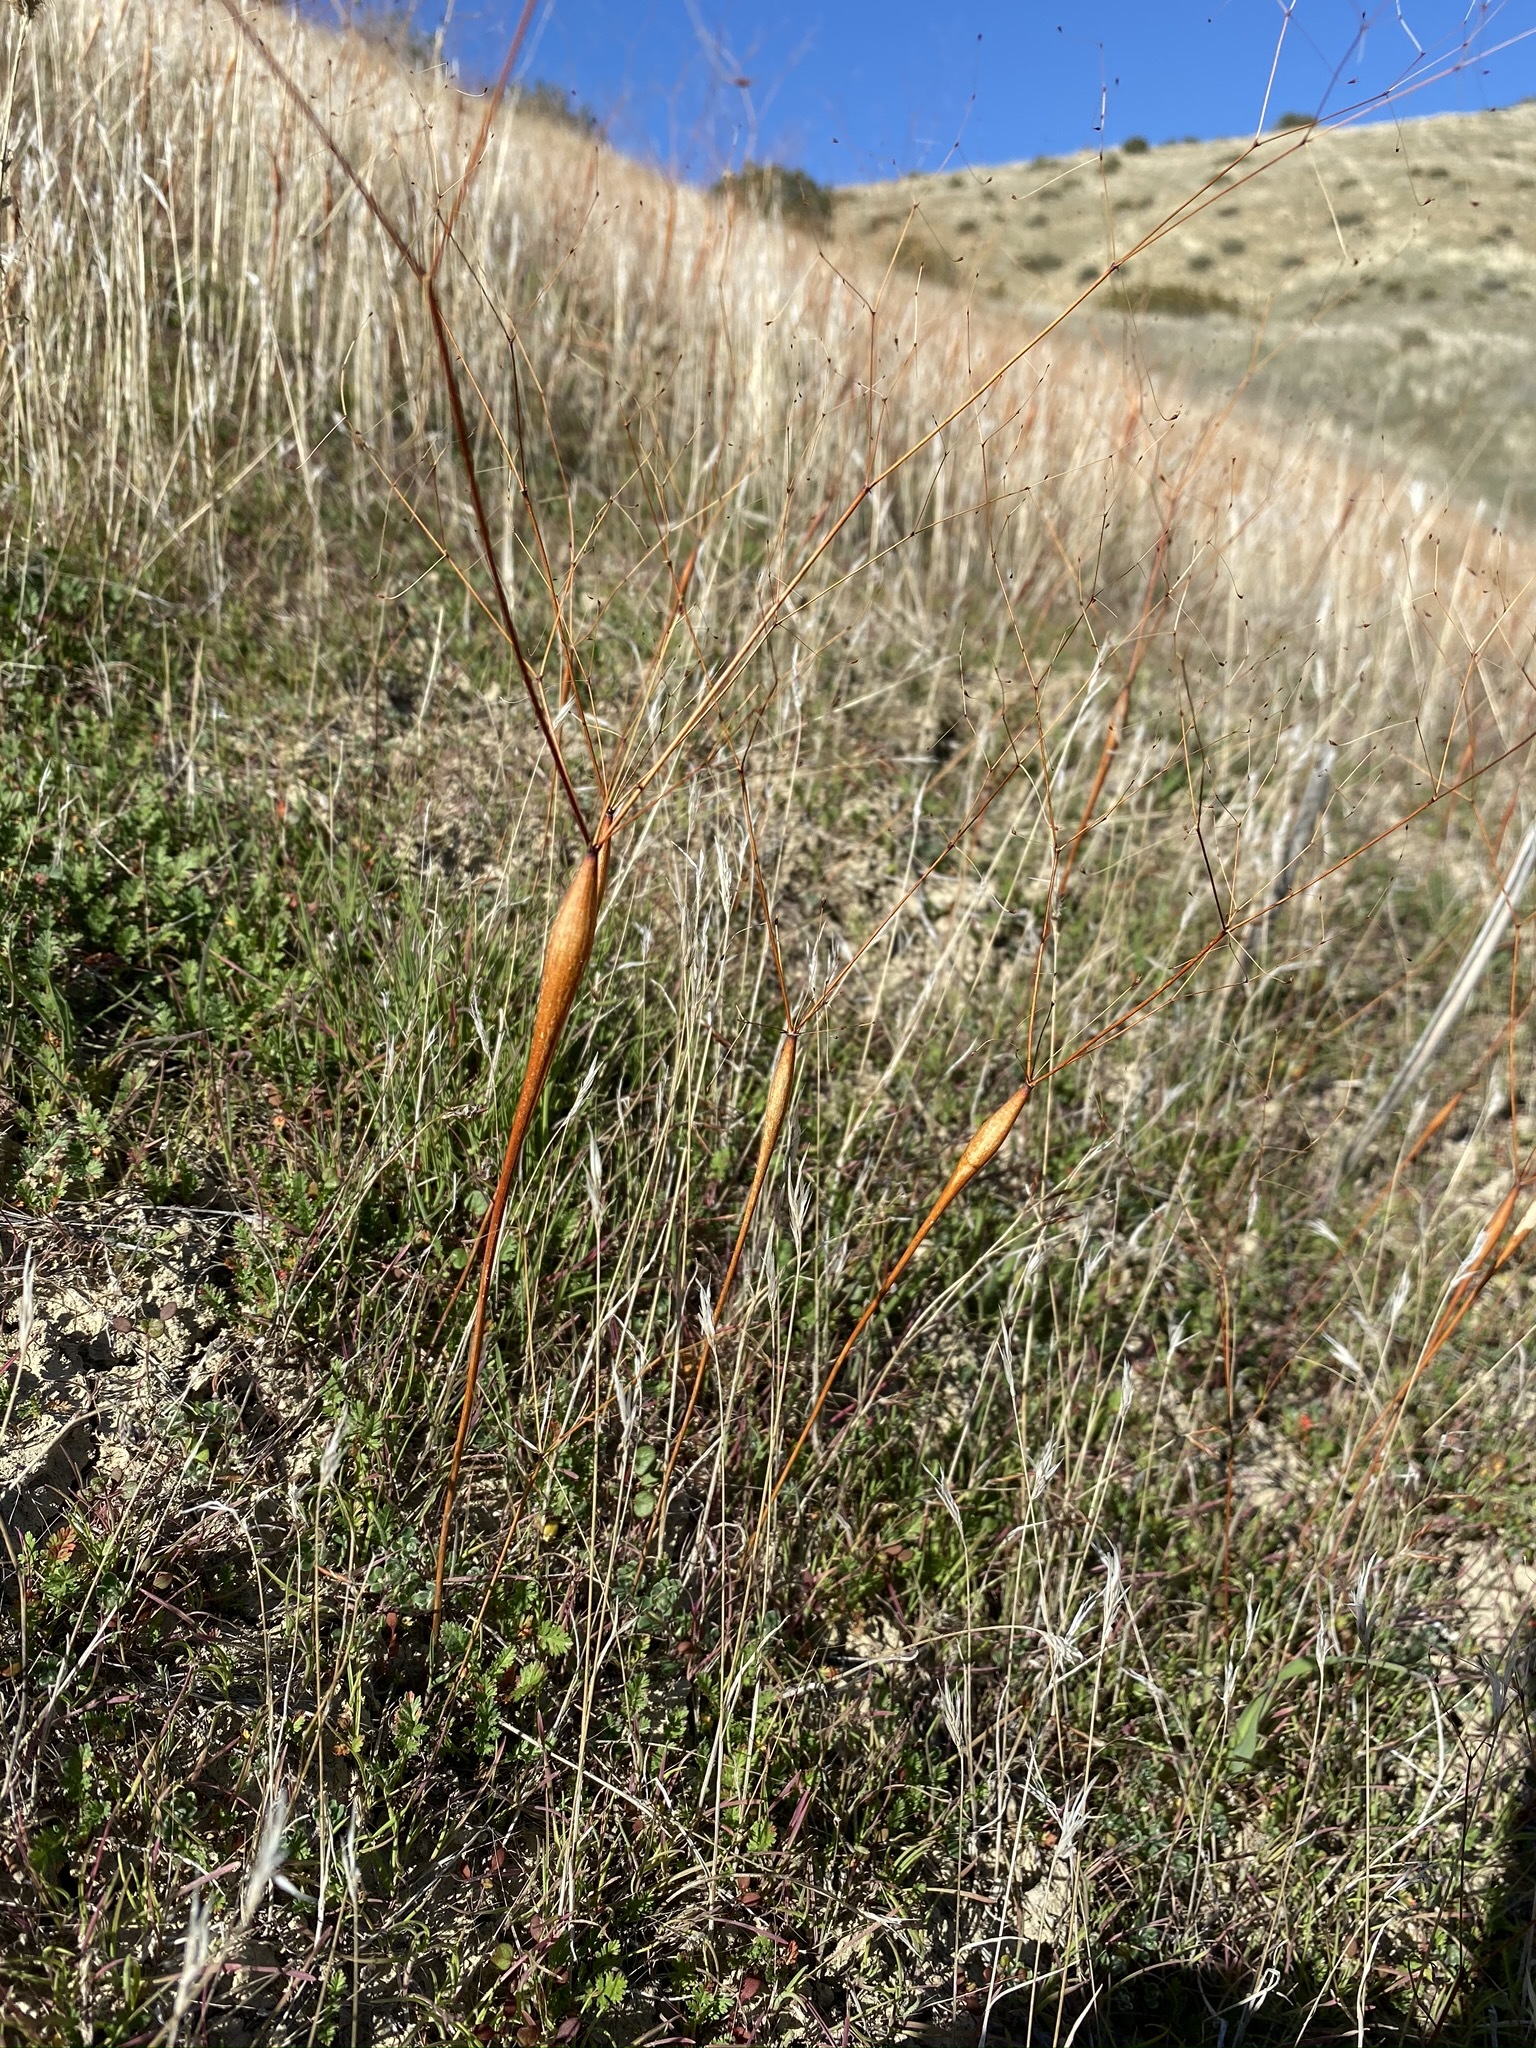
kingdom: Plantae
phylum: Tracheophyta
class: Magnoliopsida
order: Caryophyllales
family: Polygonaceae
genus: Eriogonum
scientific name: Eriogonum clavatum
